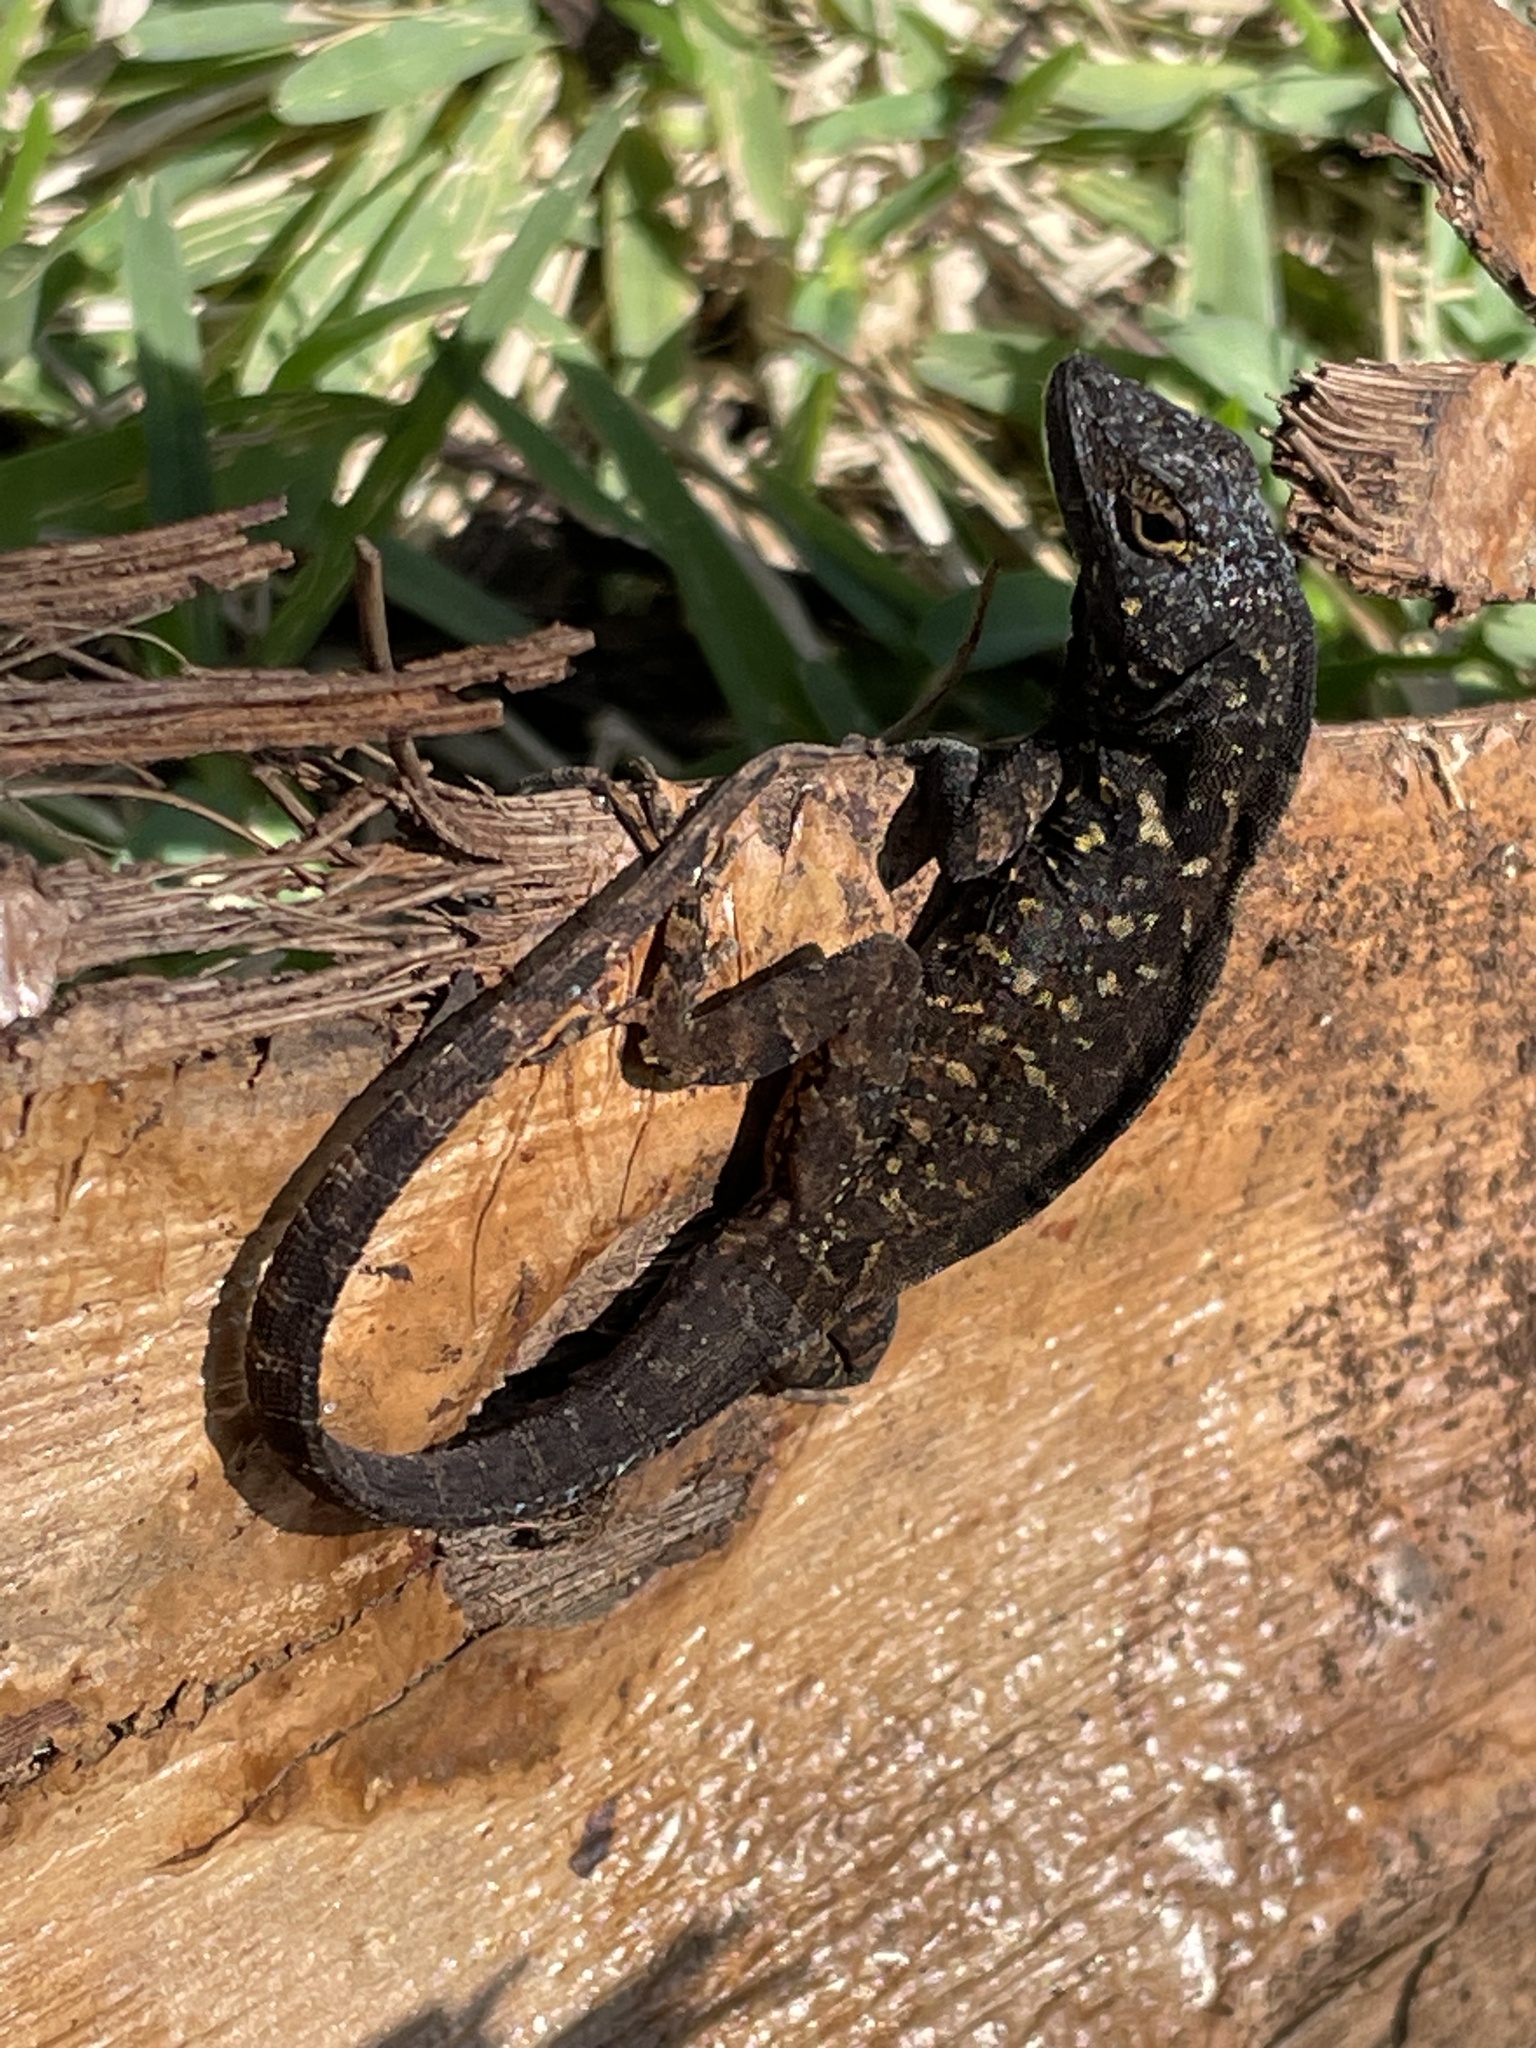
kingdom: Animalia
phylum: Chordata
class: Squamata
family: Dactyloidae
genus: Anolis
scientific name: Anolis sagrei
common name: Brown anole
